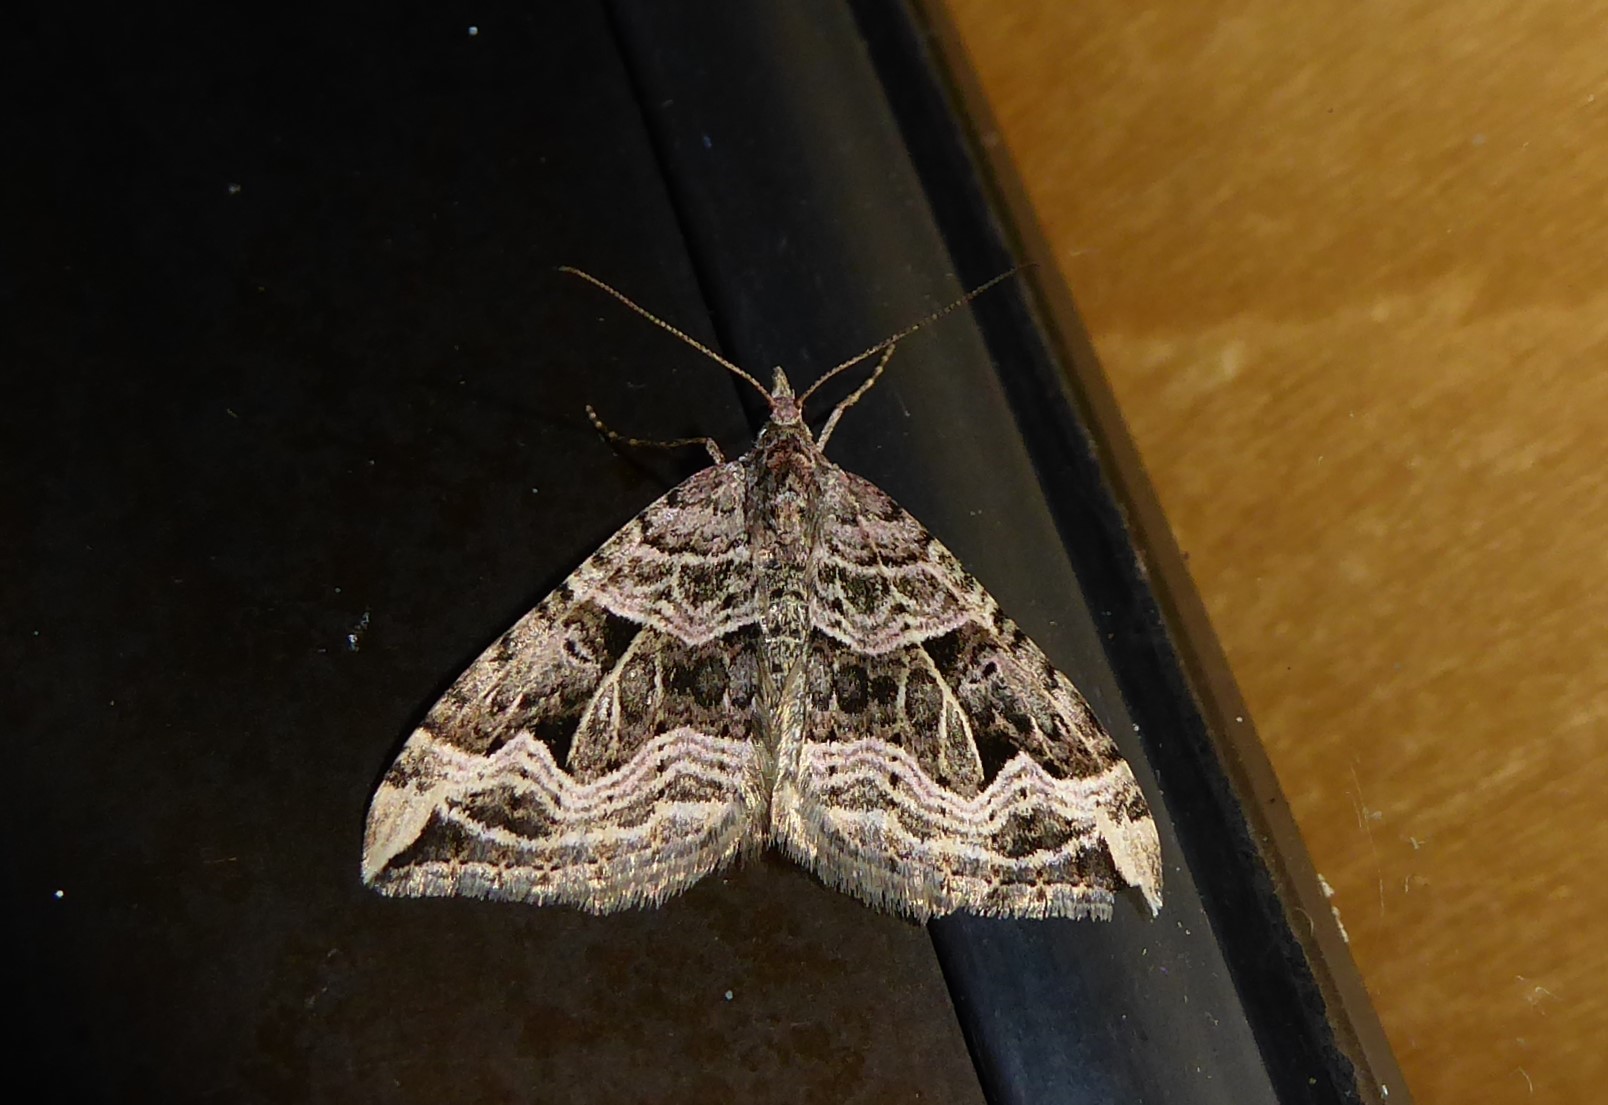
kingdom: Animalia
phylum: Arthropoda
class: Insecta
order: Lepidoptera
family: Geometridae
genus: Xanthorhoe
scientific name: Xanthorhoe semifissata
